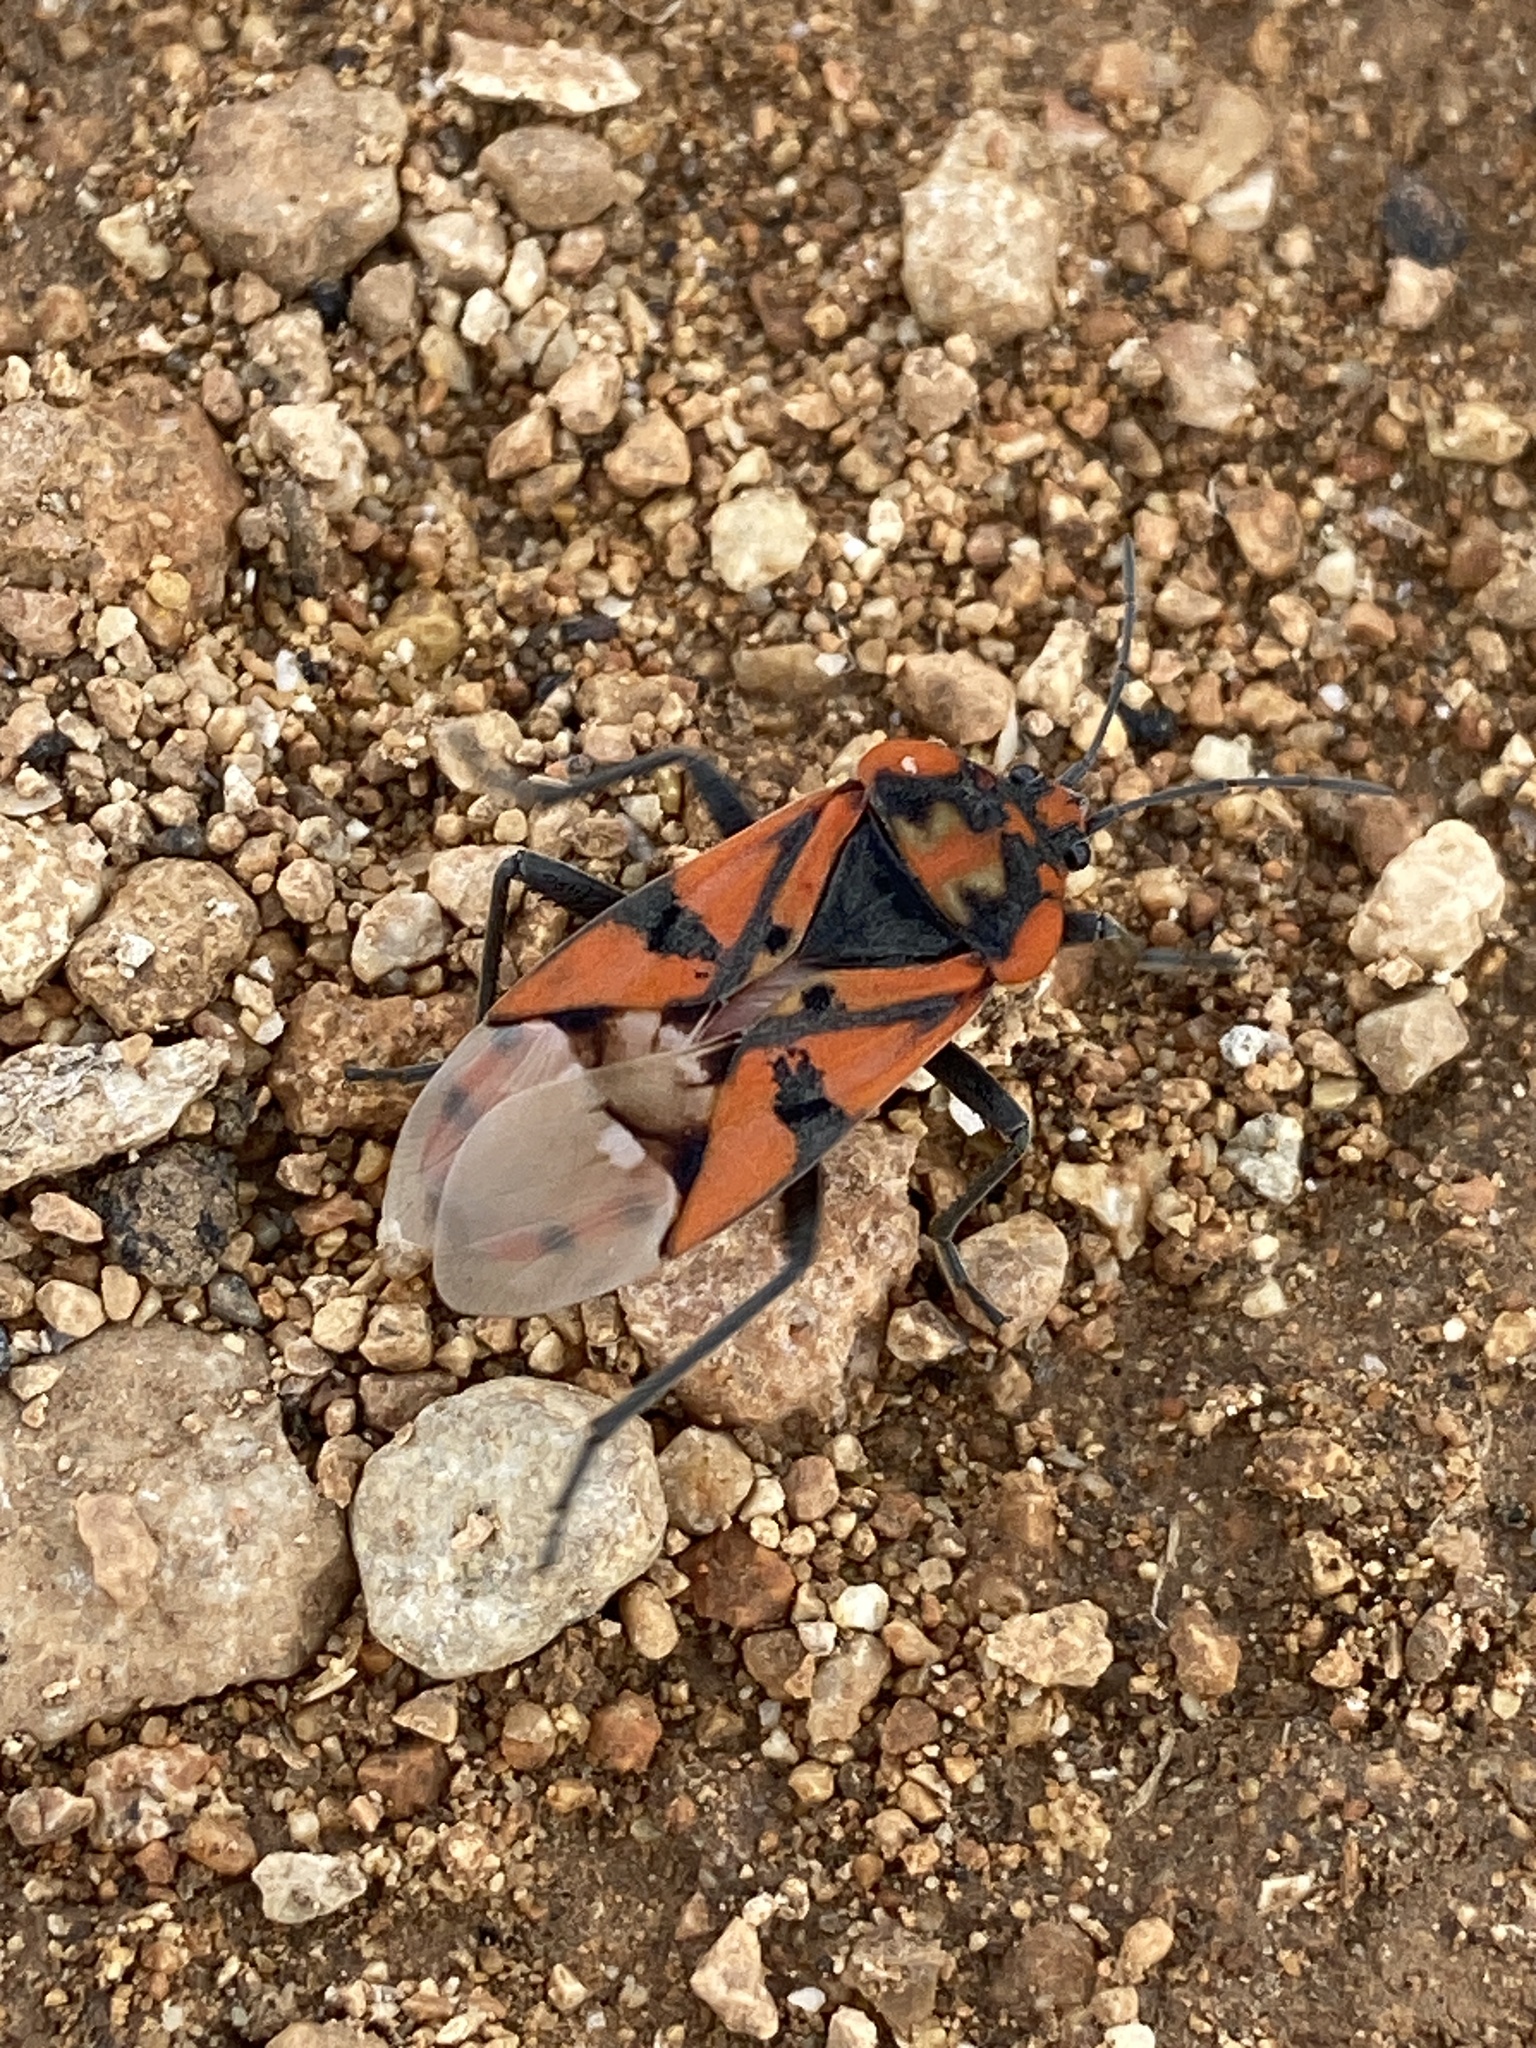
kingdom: Animalia
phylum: Arthropoda
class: Insecta
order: Hemiptera
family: Lygaeidae
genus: Spilostethus
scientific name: Spilostethus pandurus
